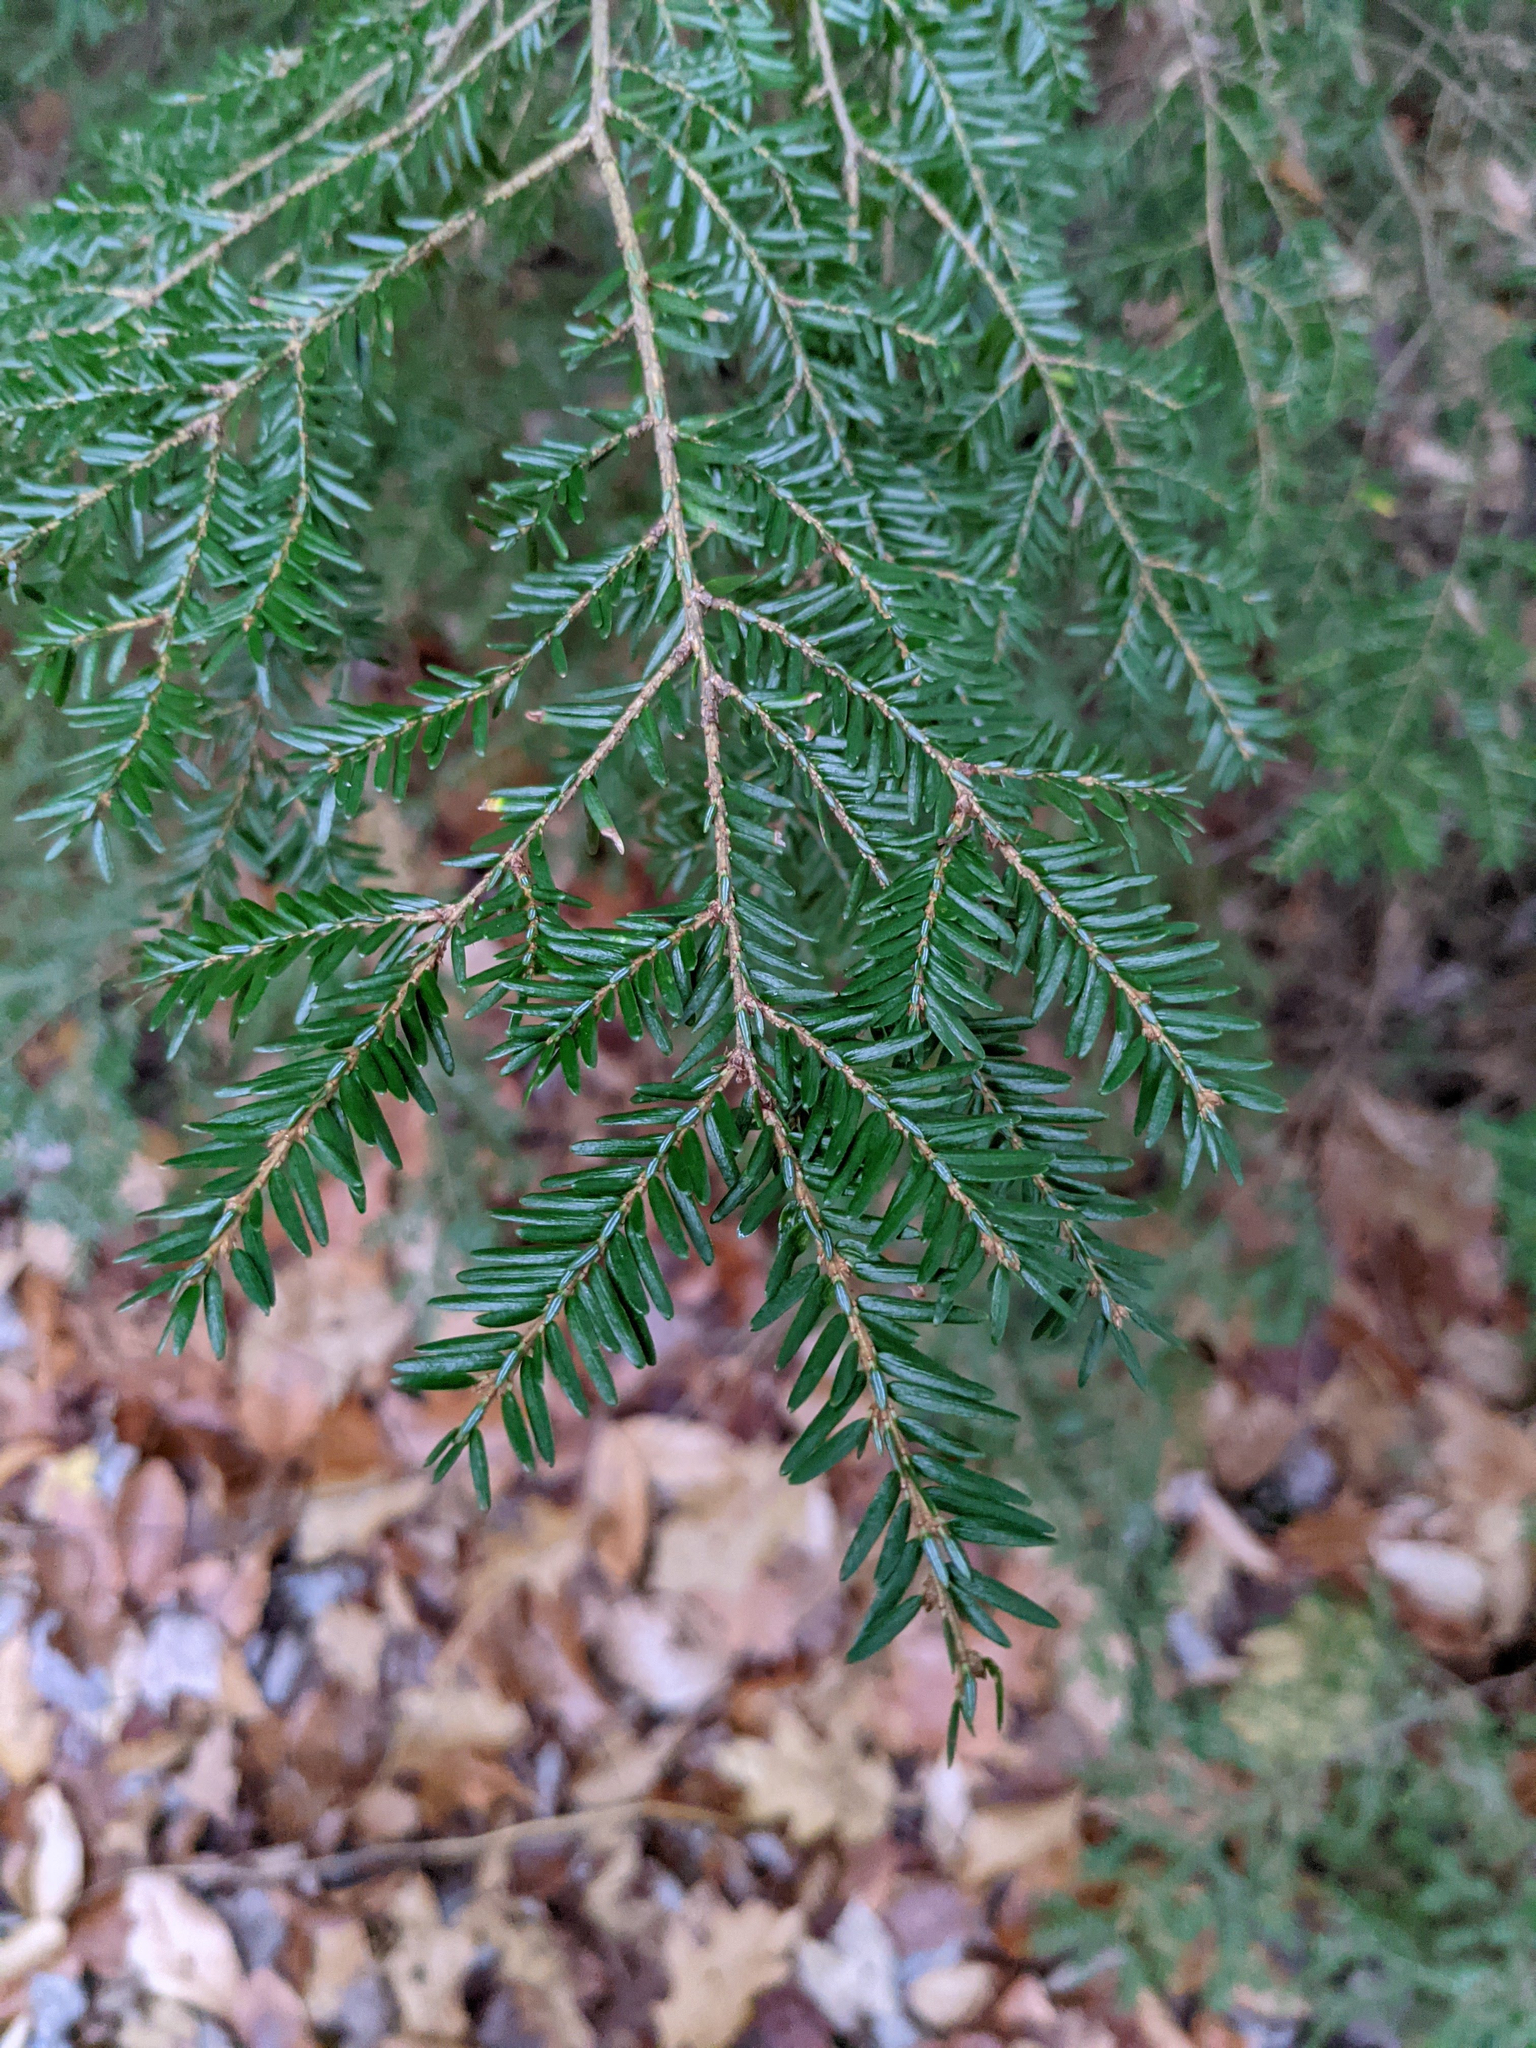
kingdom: Plantae
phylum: Tracheophyta
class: Pinopsida
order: Pinales
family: Pinaceae
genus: Tsuga
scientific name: Tsuga canadensis
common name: Eastern hemlock
